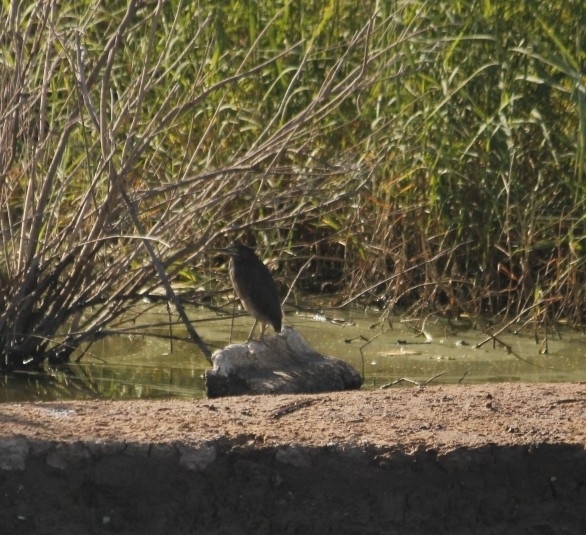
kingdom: Animalia
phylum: Chordata
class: Aves
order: Pelecaniformes
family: Ardeidae
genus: Butorides
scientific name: Butorides virescens
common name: Green heron
